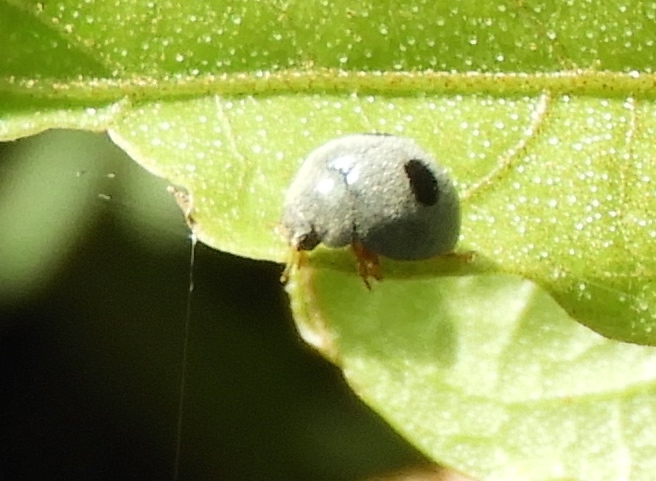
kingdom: Animalia
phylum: Arthropoda
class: Insecta
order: Coleoptera
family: Coccinellidae
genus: Azya
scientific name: Azya
